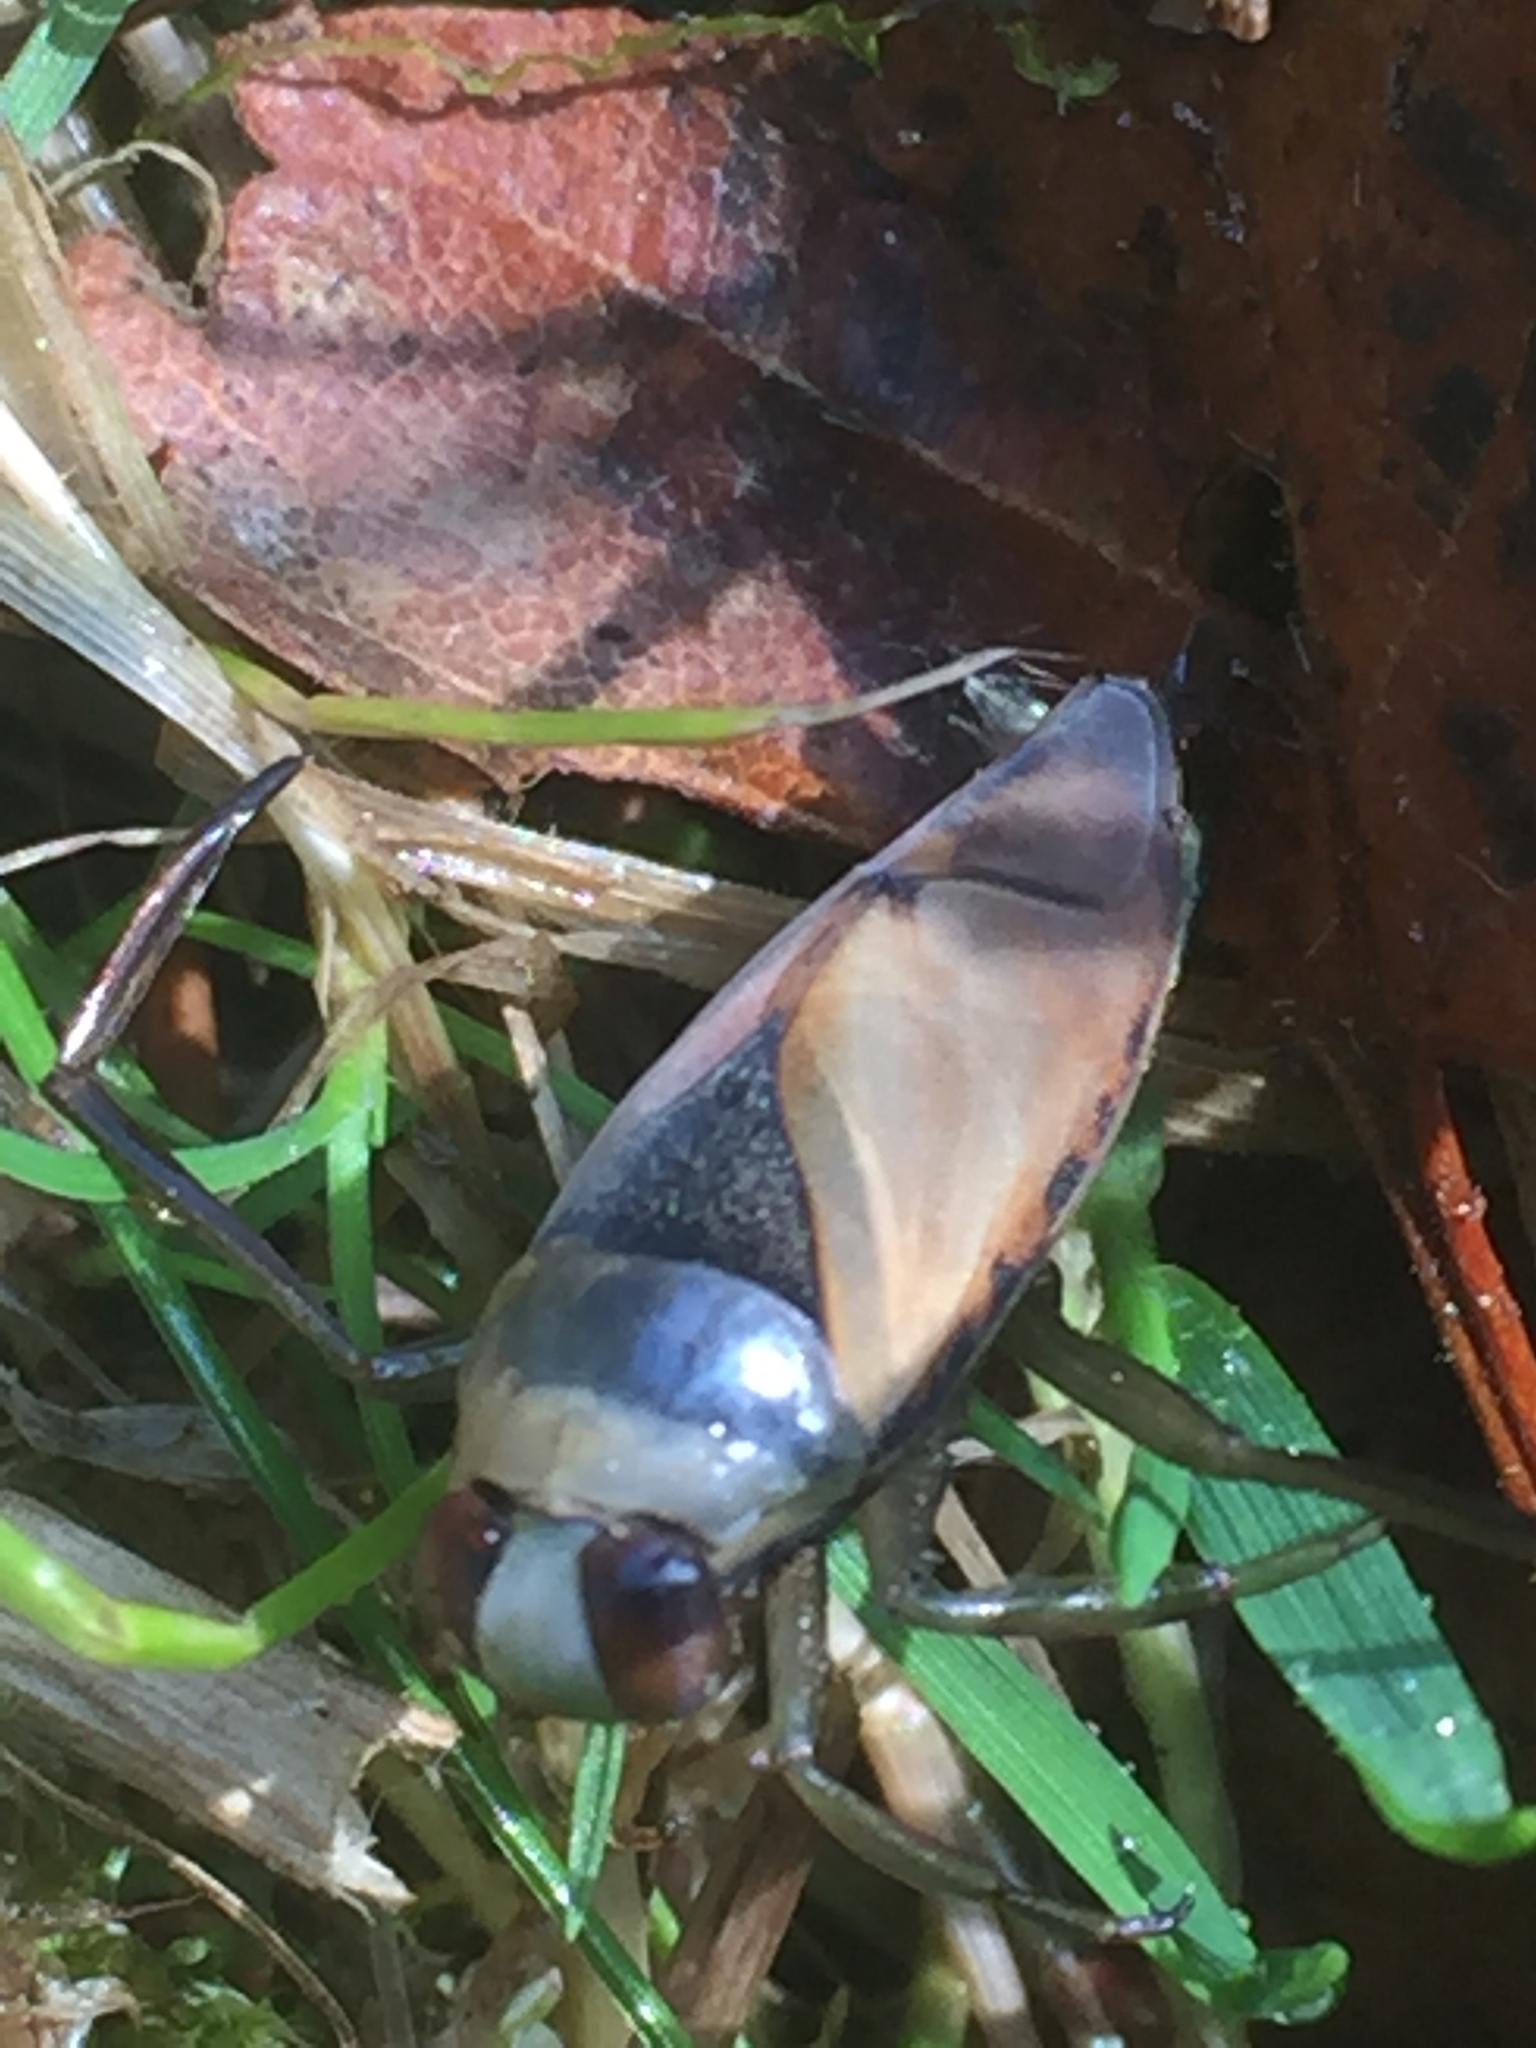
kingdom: Animalia
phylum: Arthropoda
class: Insecta
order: Hemiptera
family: Notonectidae
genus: Notonecta
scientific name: Notonecta glauca
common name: Common water-boatman
